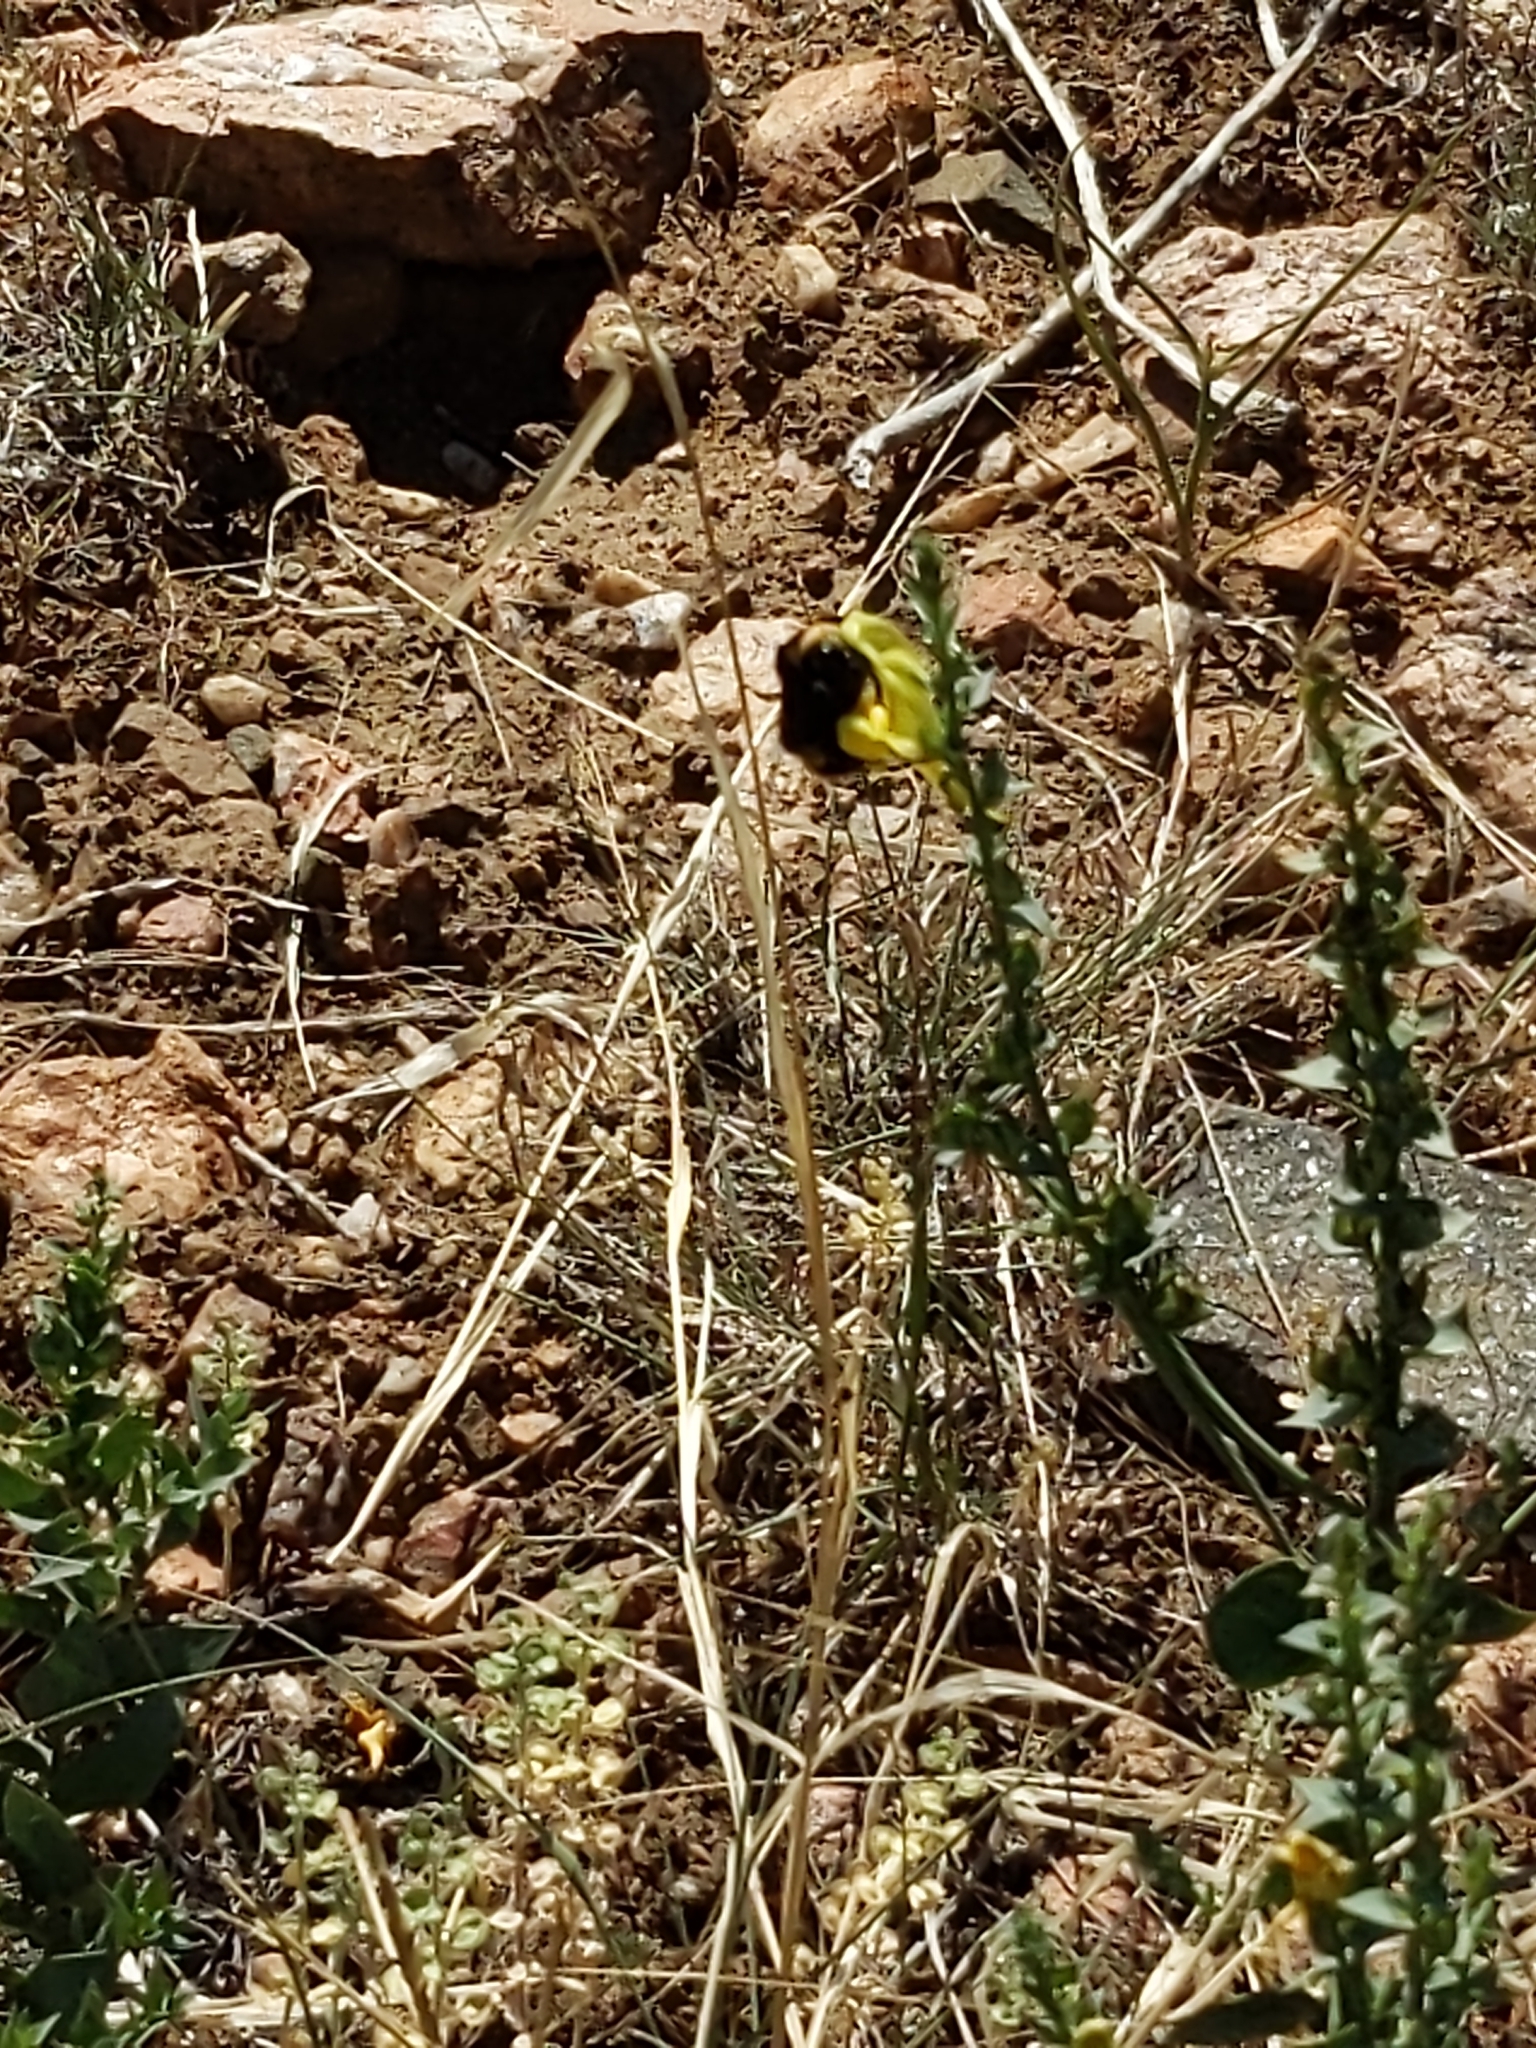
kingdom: Animalia
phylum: Arthropoda
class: Insecta
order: Hymenoptera
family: Apidae
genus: Bombus
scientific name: Bombus nevadensis
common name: Nevada bumble bee
